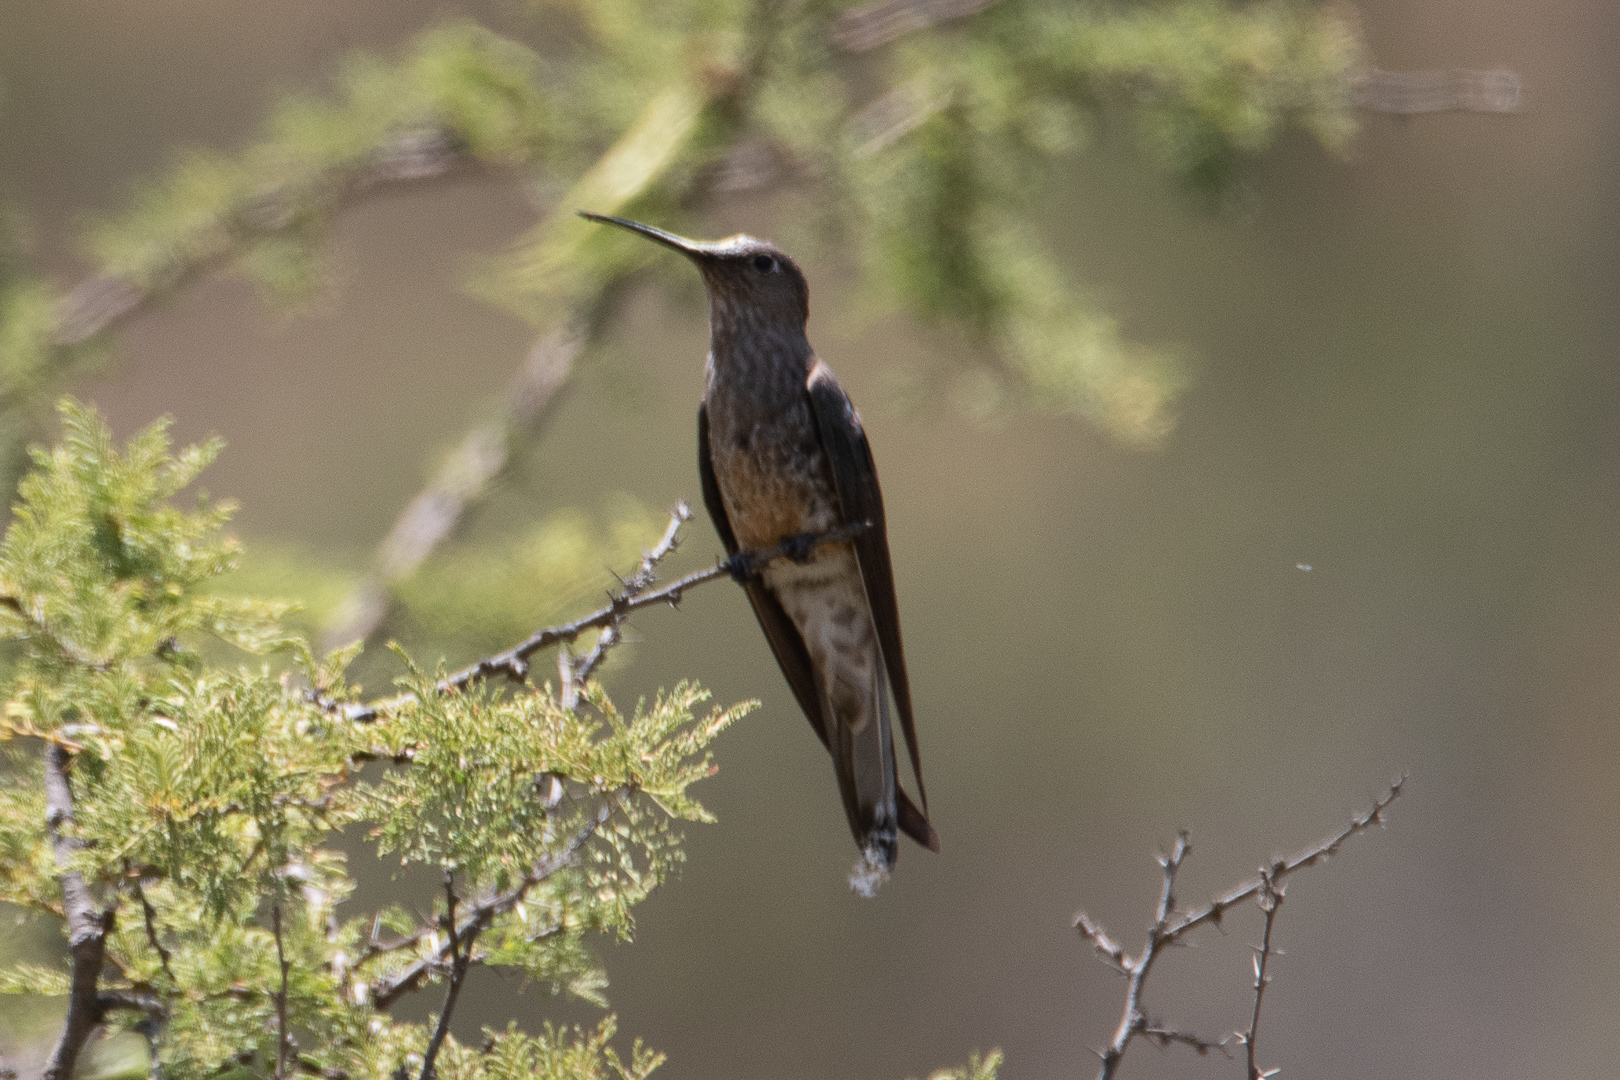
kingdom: Animalia
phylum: Chordata
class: Aves
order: Apodiformes
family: Trochilidae
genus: Patagona
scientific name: Patagona gigas
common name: Giant hummingbird
